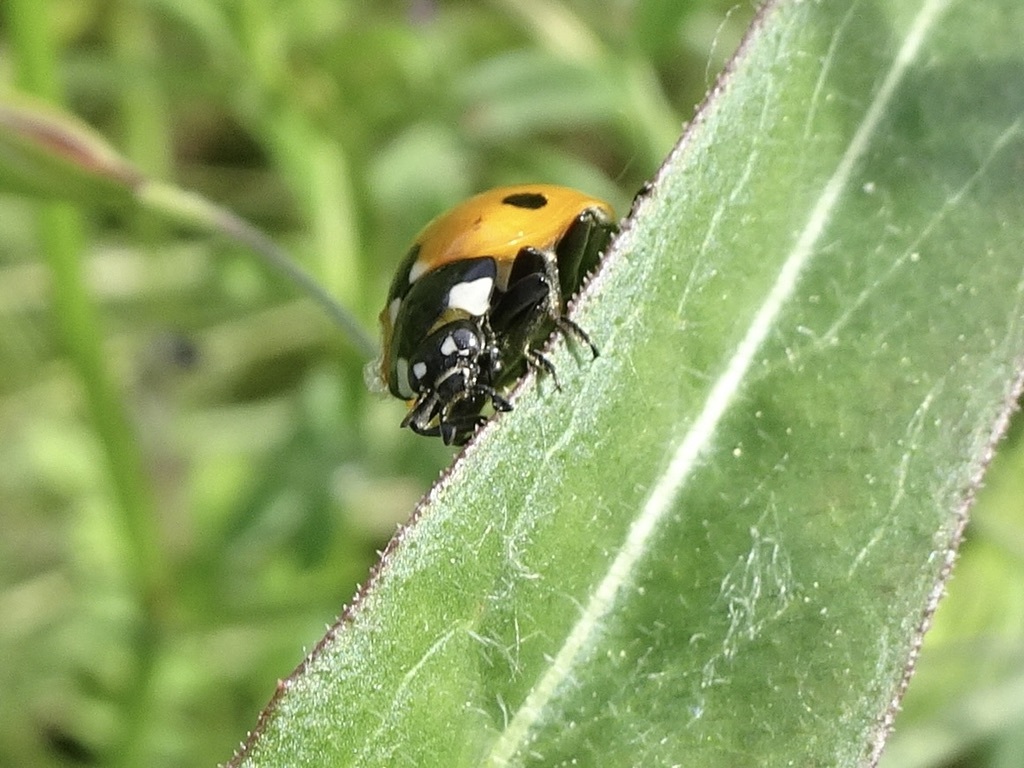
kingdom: Animalia
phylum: Arthropoda
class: Insecta
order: Coleoptera
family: Coccinellidae
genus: Coccinella
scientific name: Coccinella septempunctata
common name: Sevenspotted lady beetle
